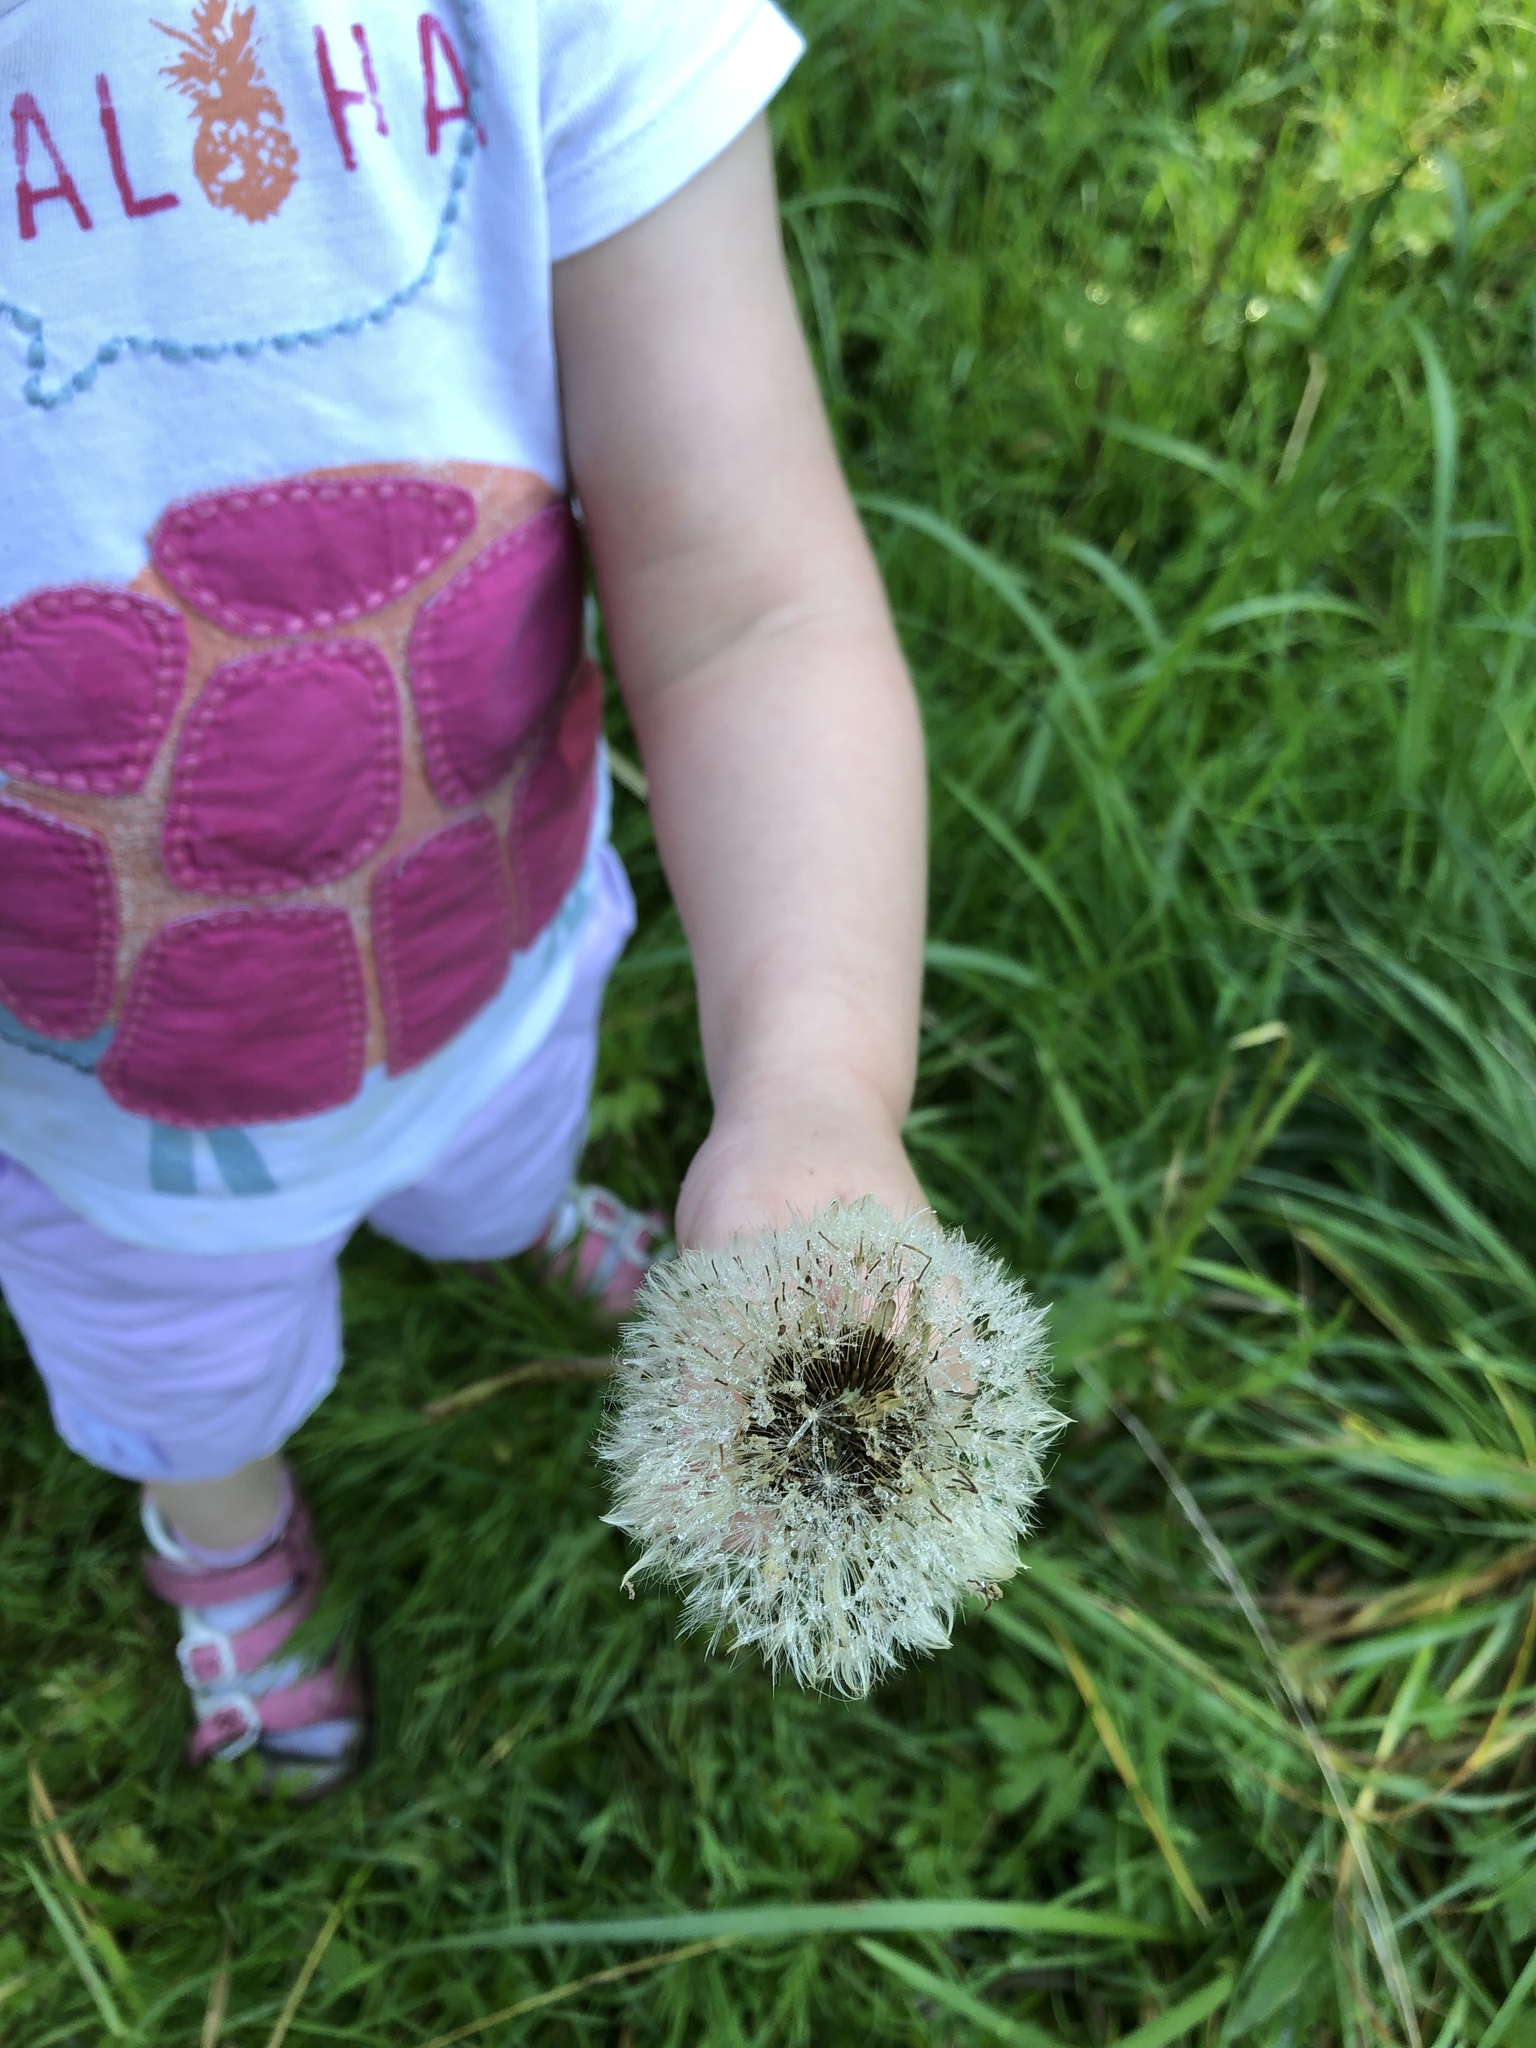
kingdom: Plantae
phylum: Tracheophyta
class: Magnoliopsida
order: Asterales
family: Asteraceae
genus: Taraxacum
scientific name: Taraxacum officinale
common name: Common dandelion
